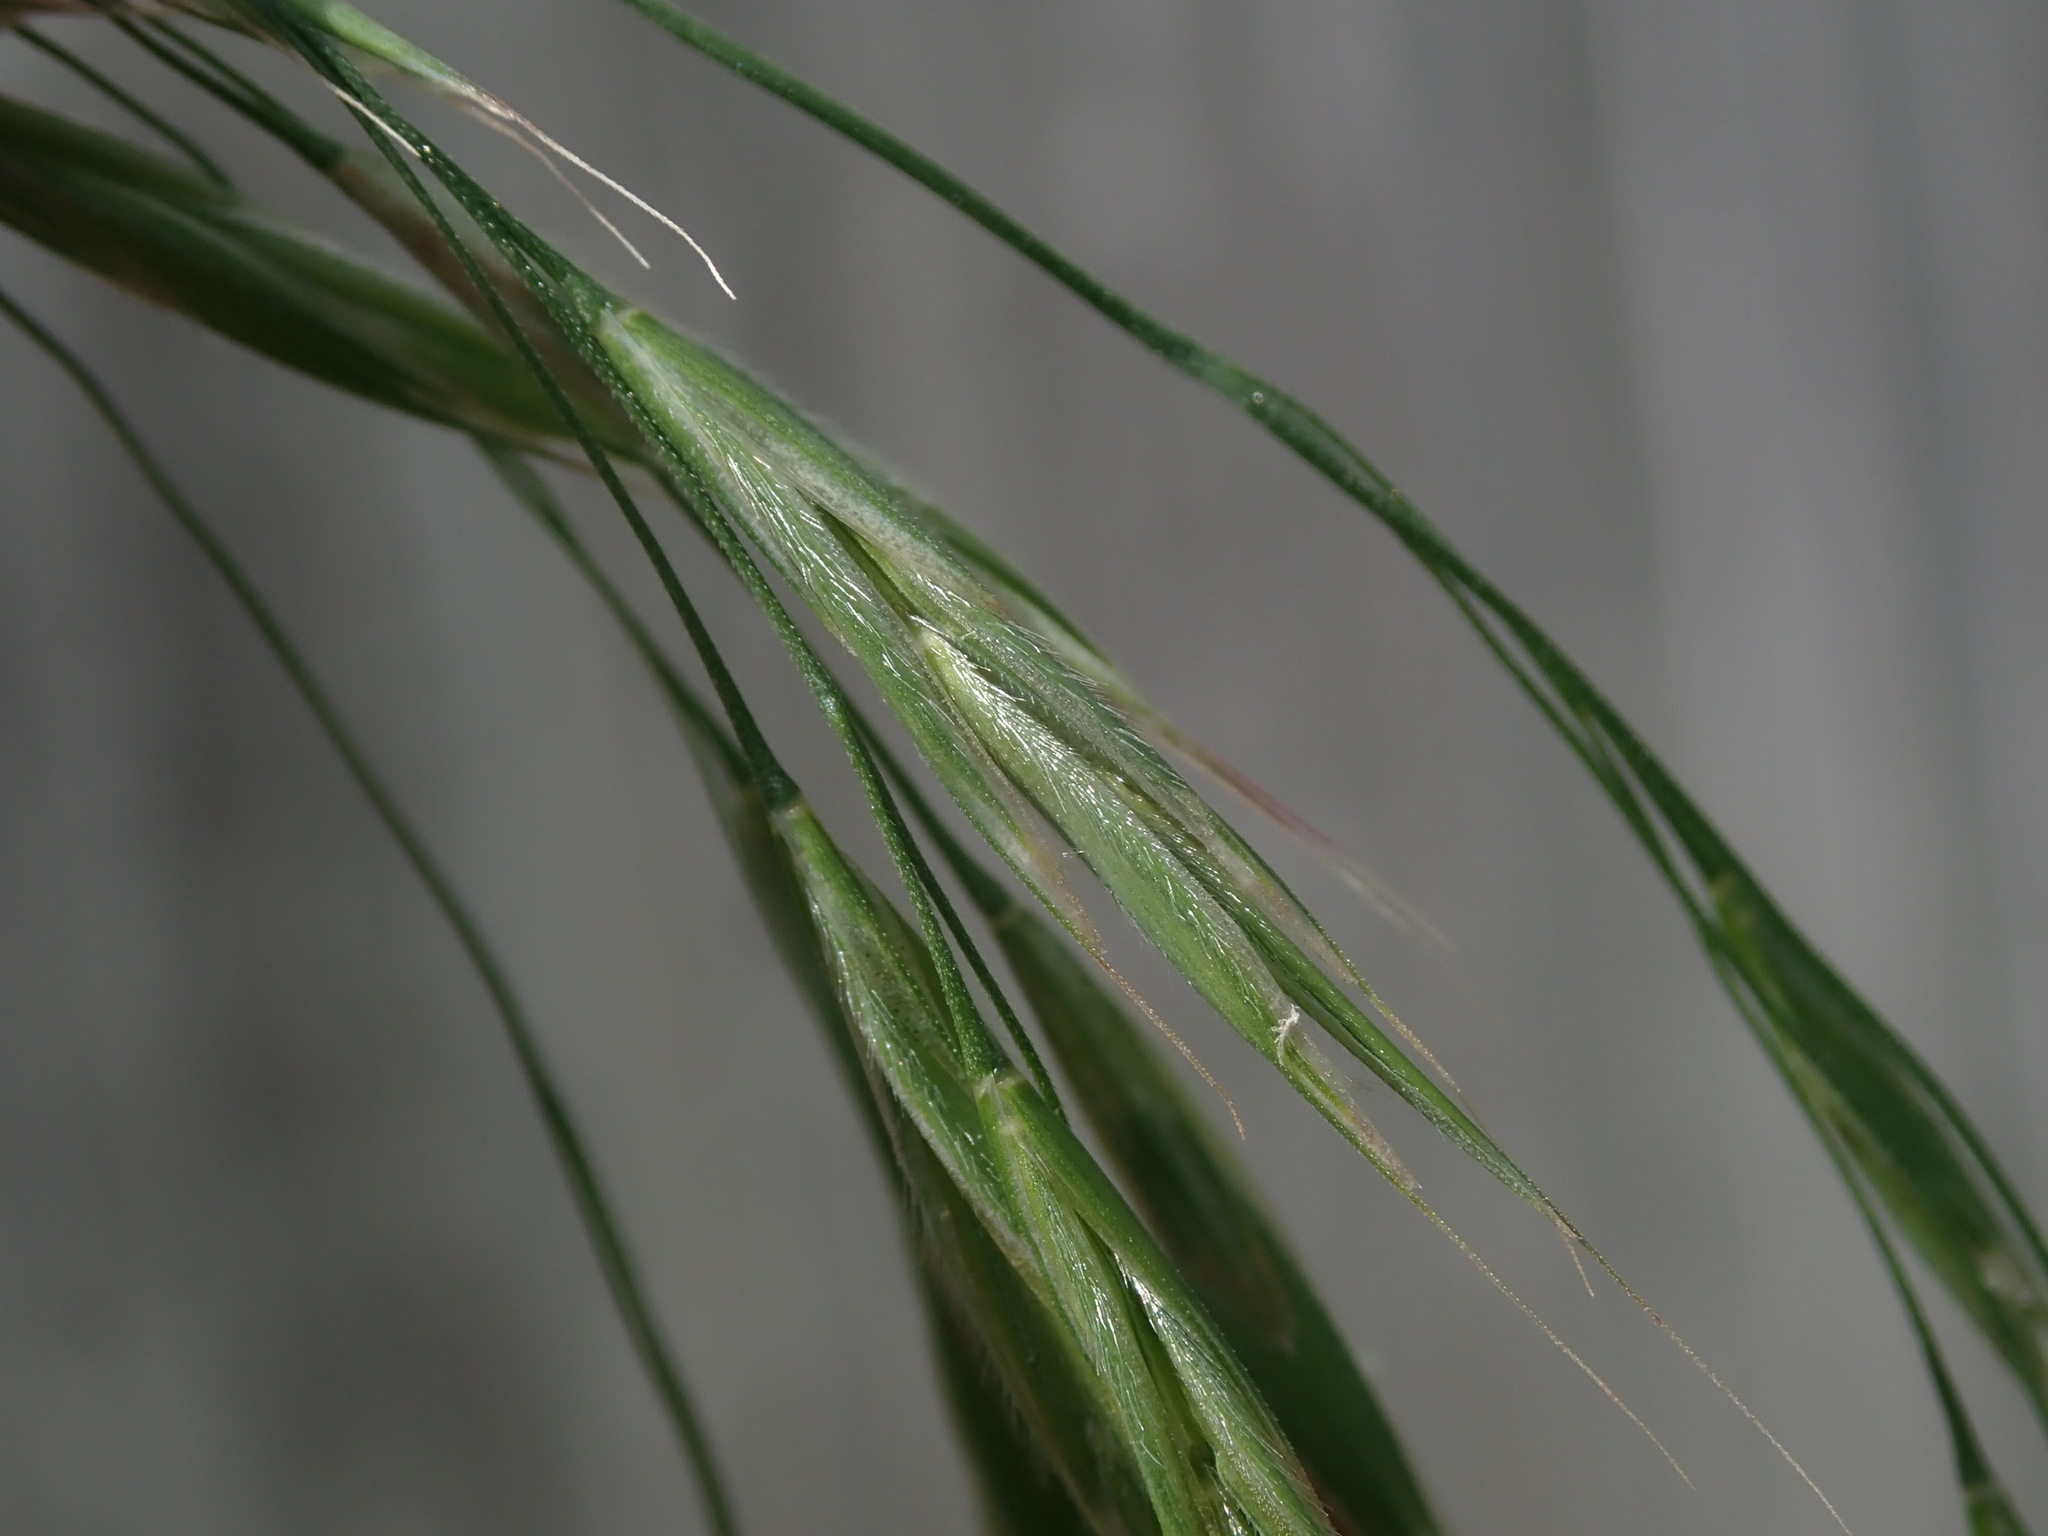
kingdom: Plantae
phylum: Tracheophyta
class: Liliopsida
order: Poales
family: Poaceae
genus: Bromus
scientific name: Bromus ramosus
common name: Hairy brome
